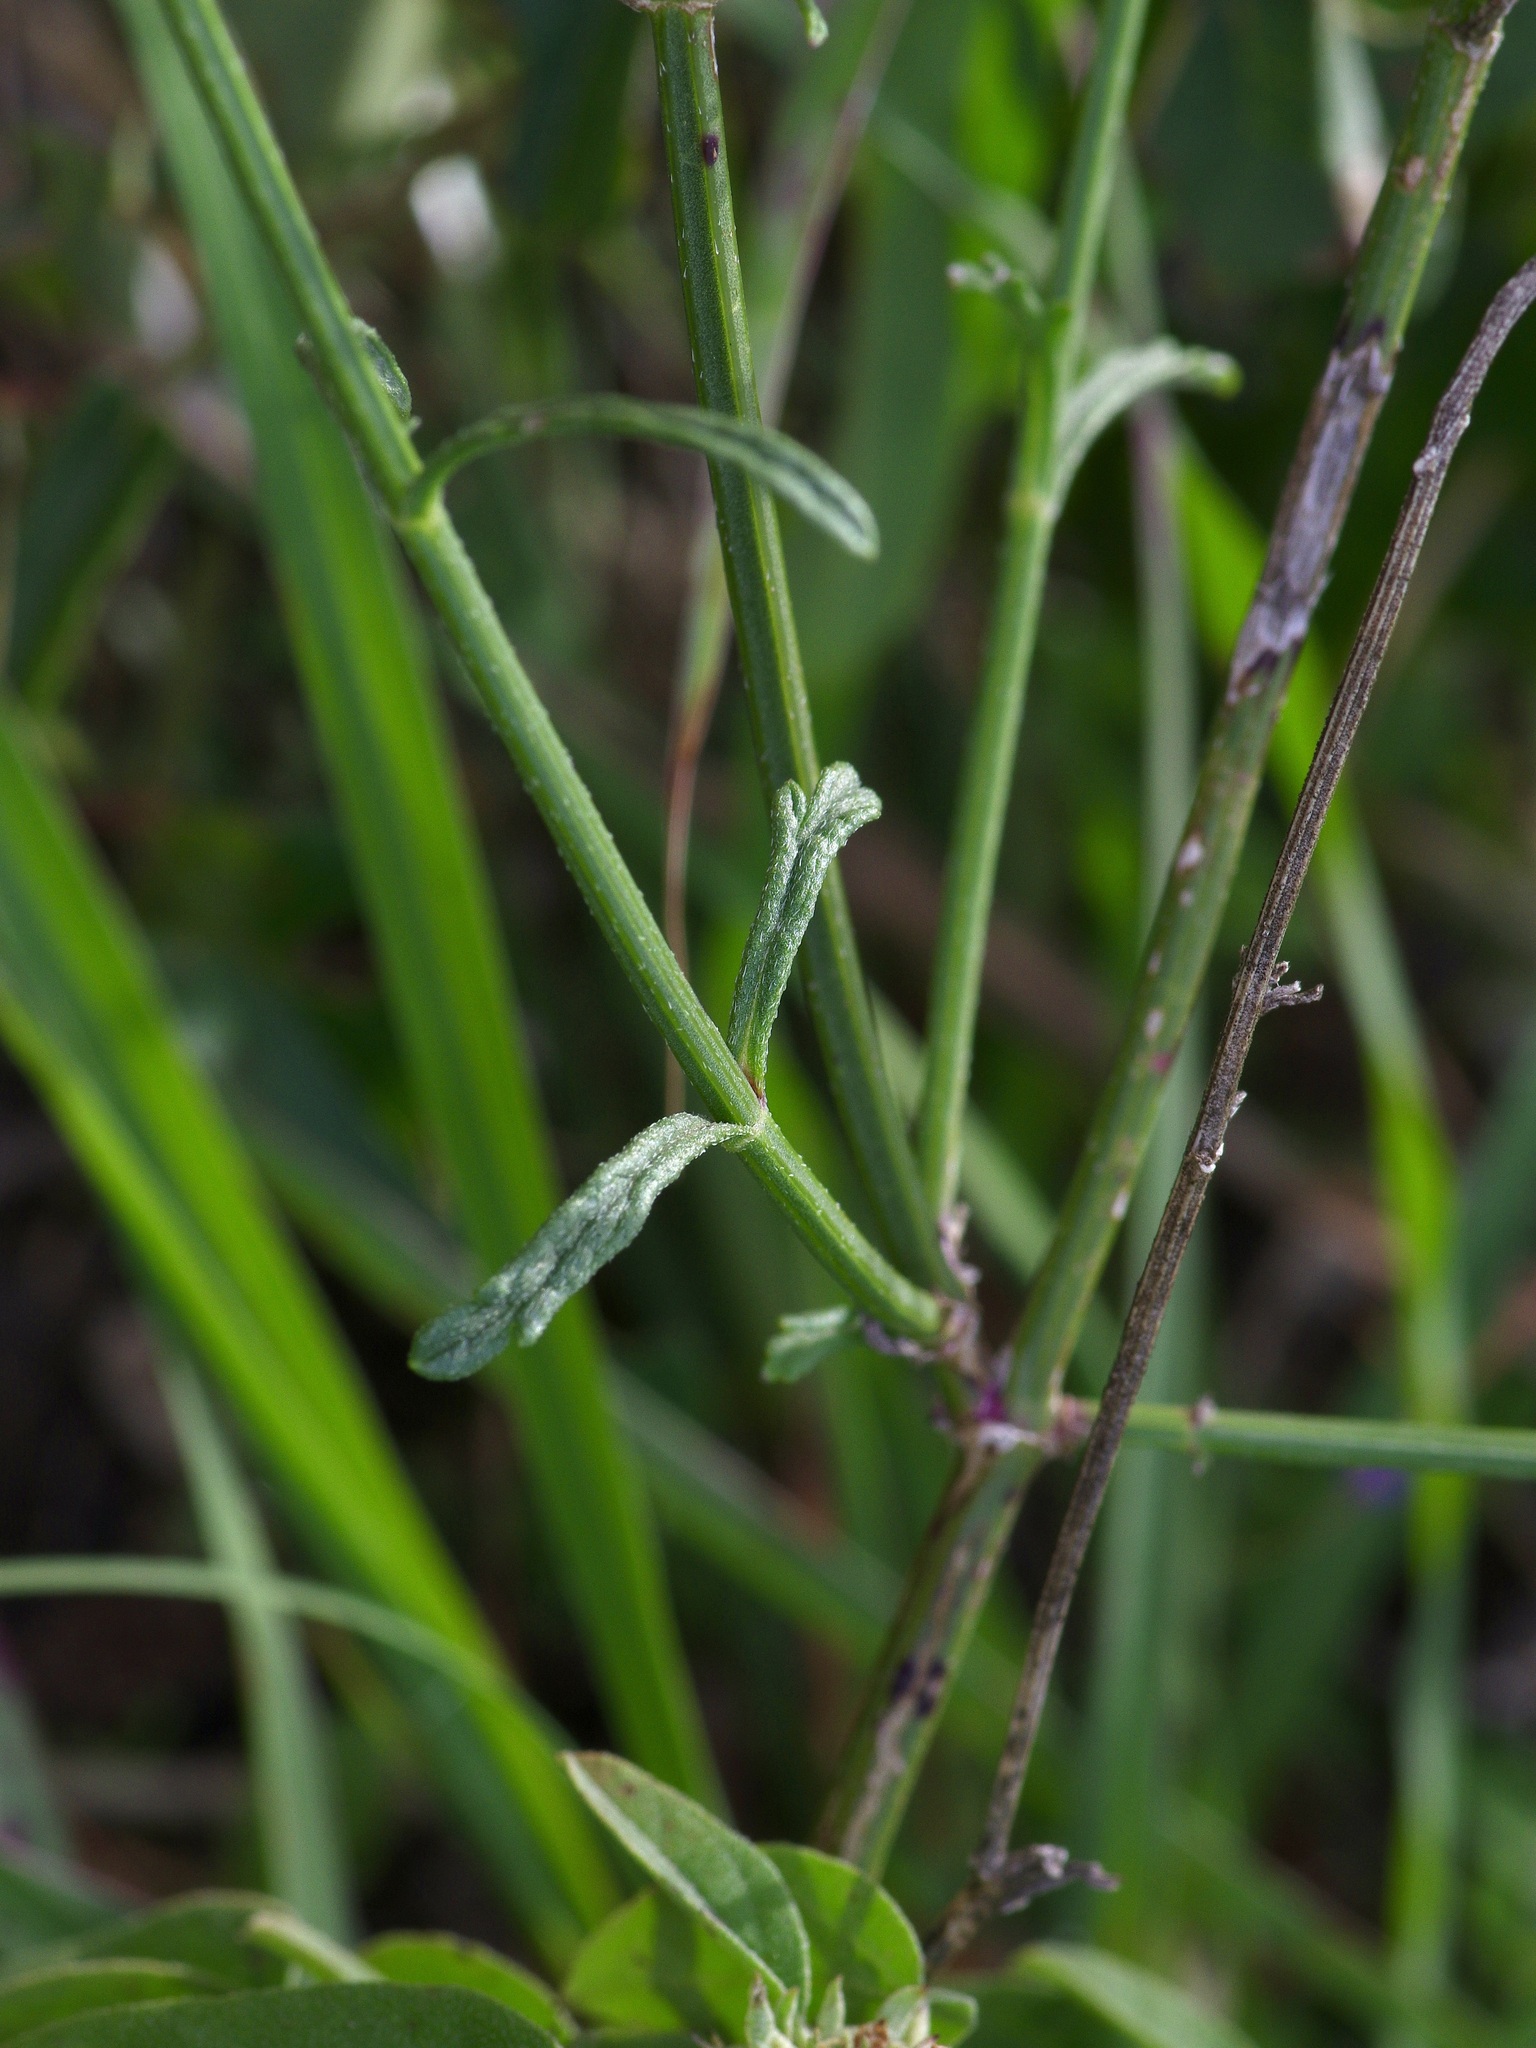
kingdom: Plantae
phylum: Tracheophyta
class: Magnoliopsida
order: Lamiales
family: Verbenaceae
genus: Verbena
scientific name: Verbena halei
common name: Texas vervain
